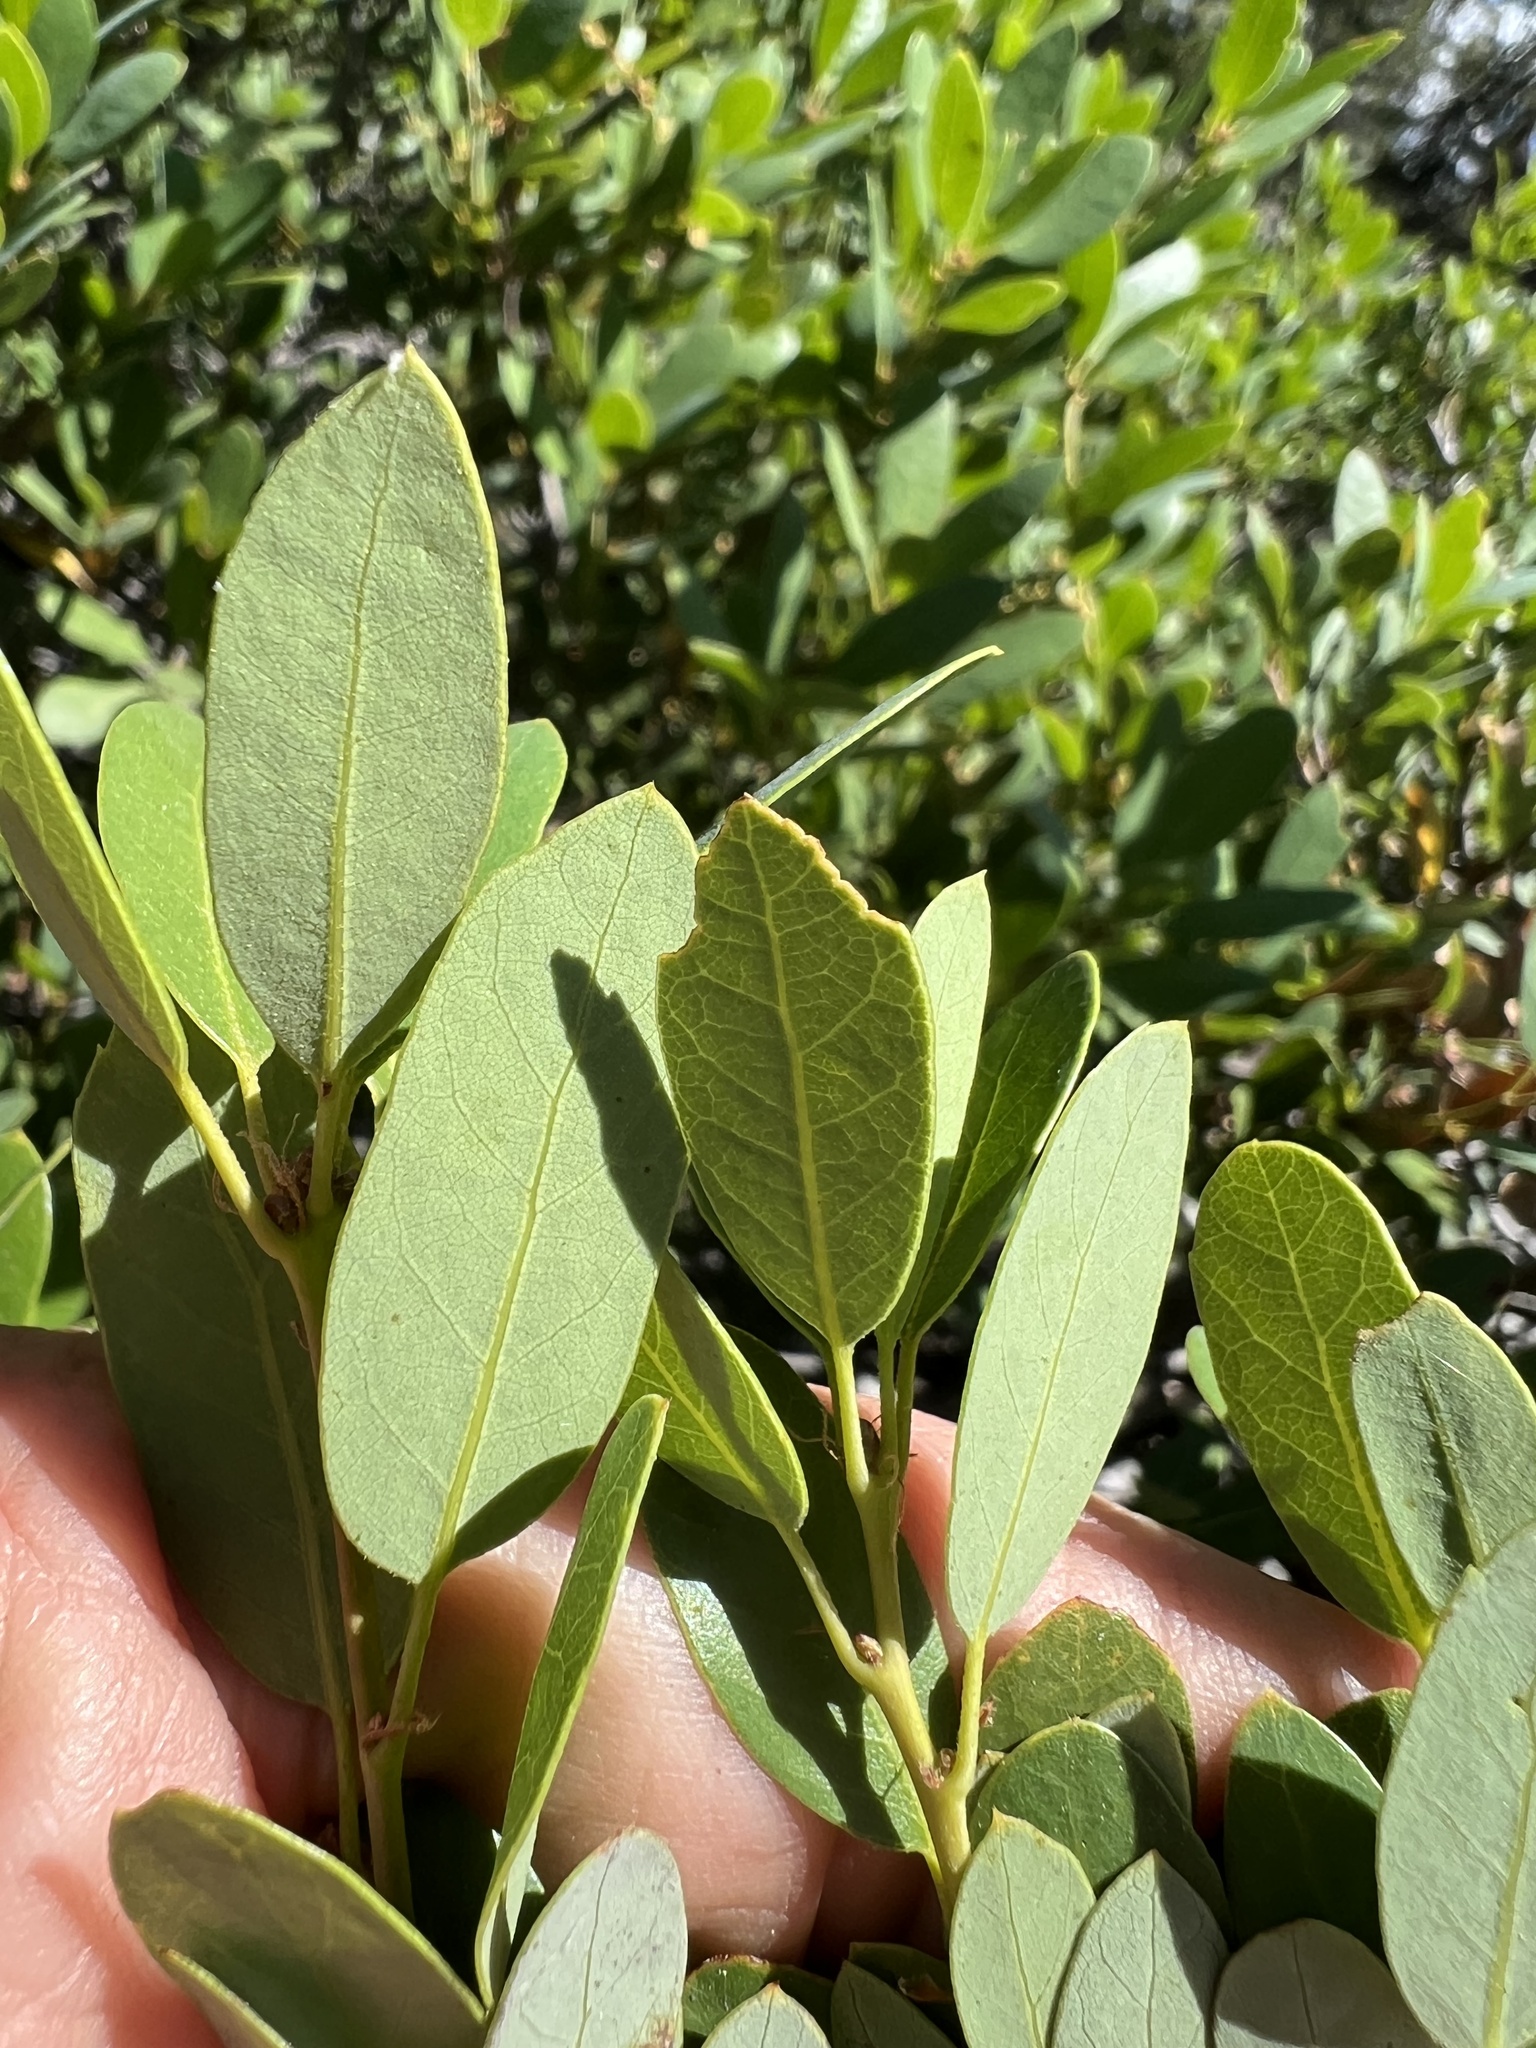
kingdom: Plantae
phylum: Tracheophyta
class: Magnoliopsida
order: Fagales
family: Fagaceae
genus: Quercus
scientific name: Quercus vacciniifolia
